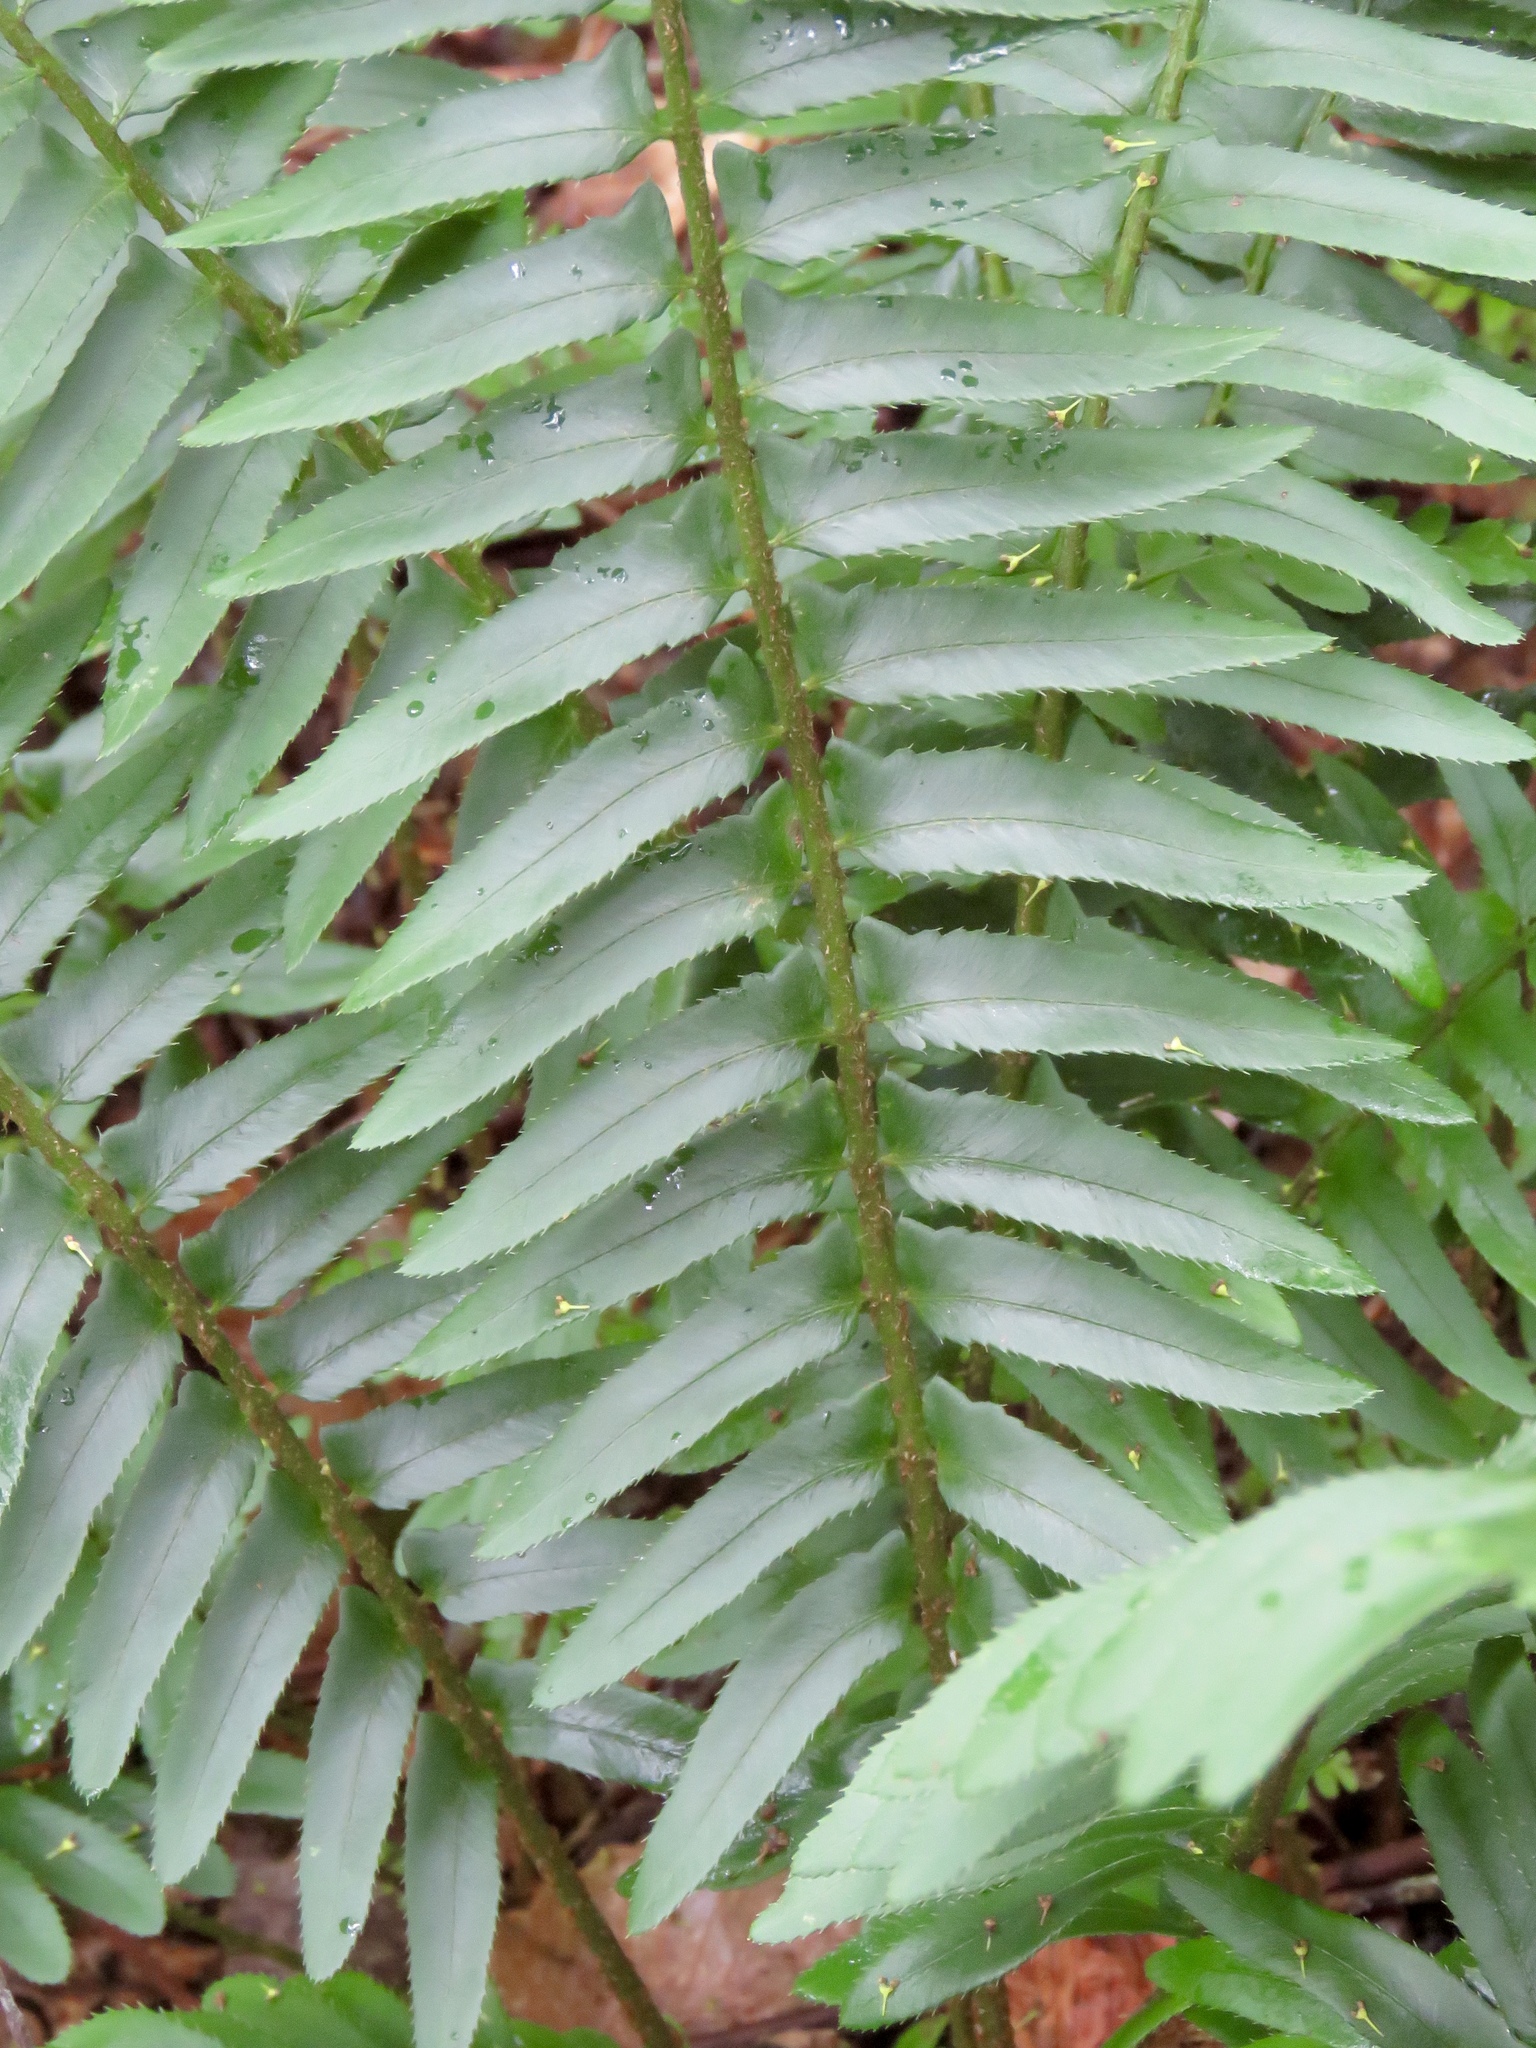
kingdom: Plantae
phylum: Tracheophyta
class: Polypodiopsida
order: Polypodiales
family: Dryopteridaceae
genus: Polystichum
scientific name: Polystichum acrostichoides
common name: Christmas fern
